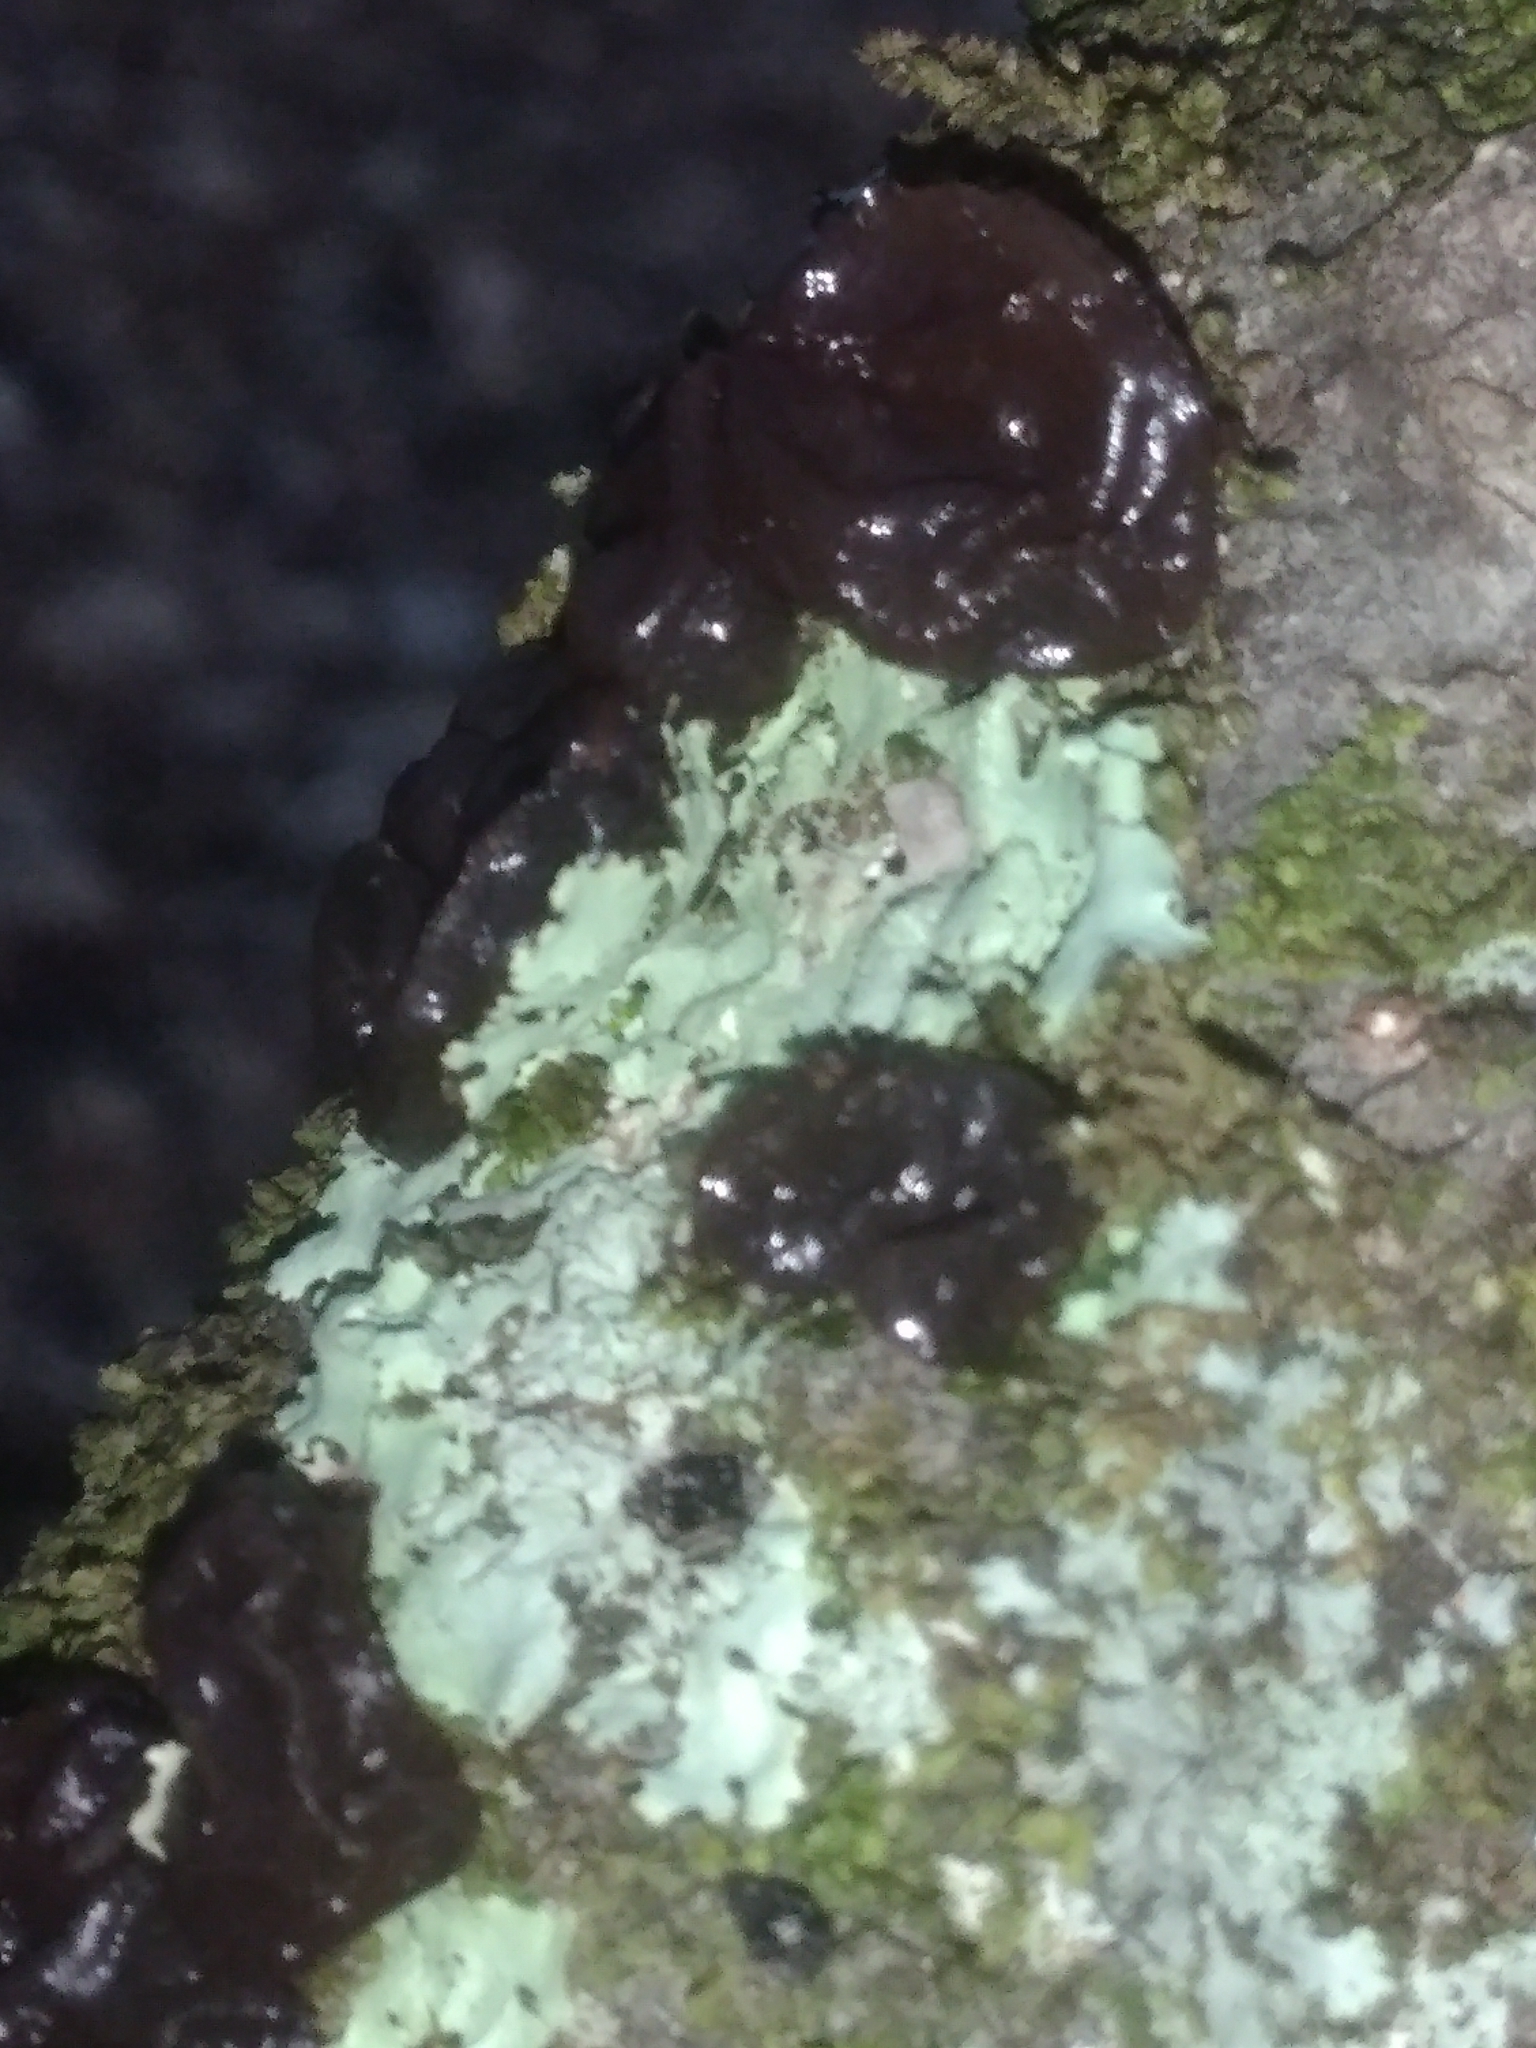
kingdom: Fungi
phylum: Basidiomycota
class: Agaricomycetes
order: Auriculariales
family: Auriculariaceae
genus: Exidia
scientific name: Exidia glandulosa
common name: Witches' butter
